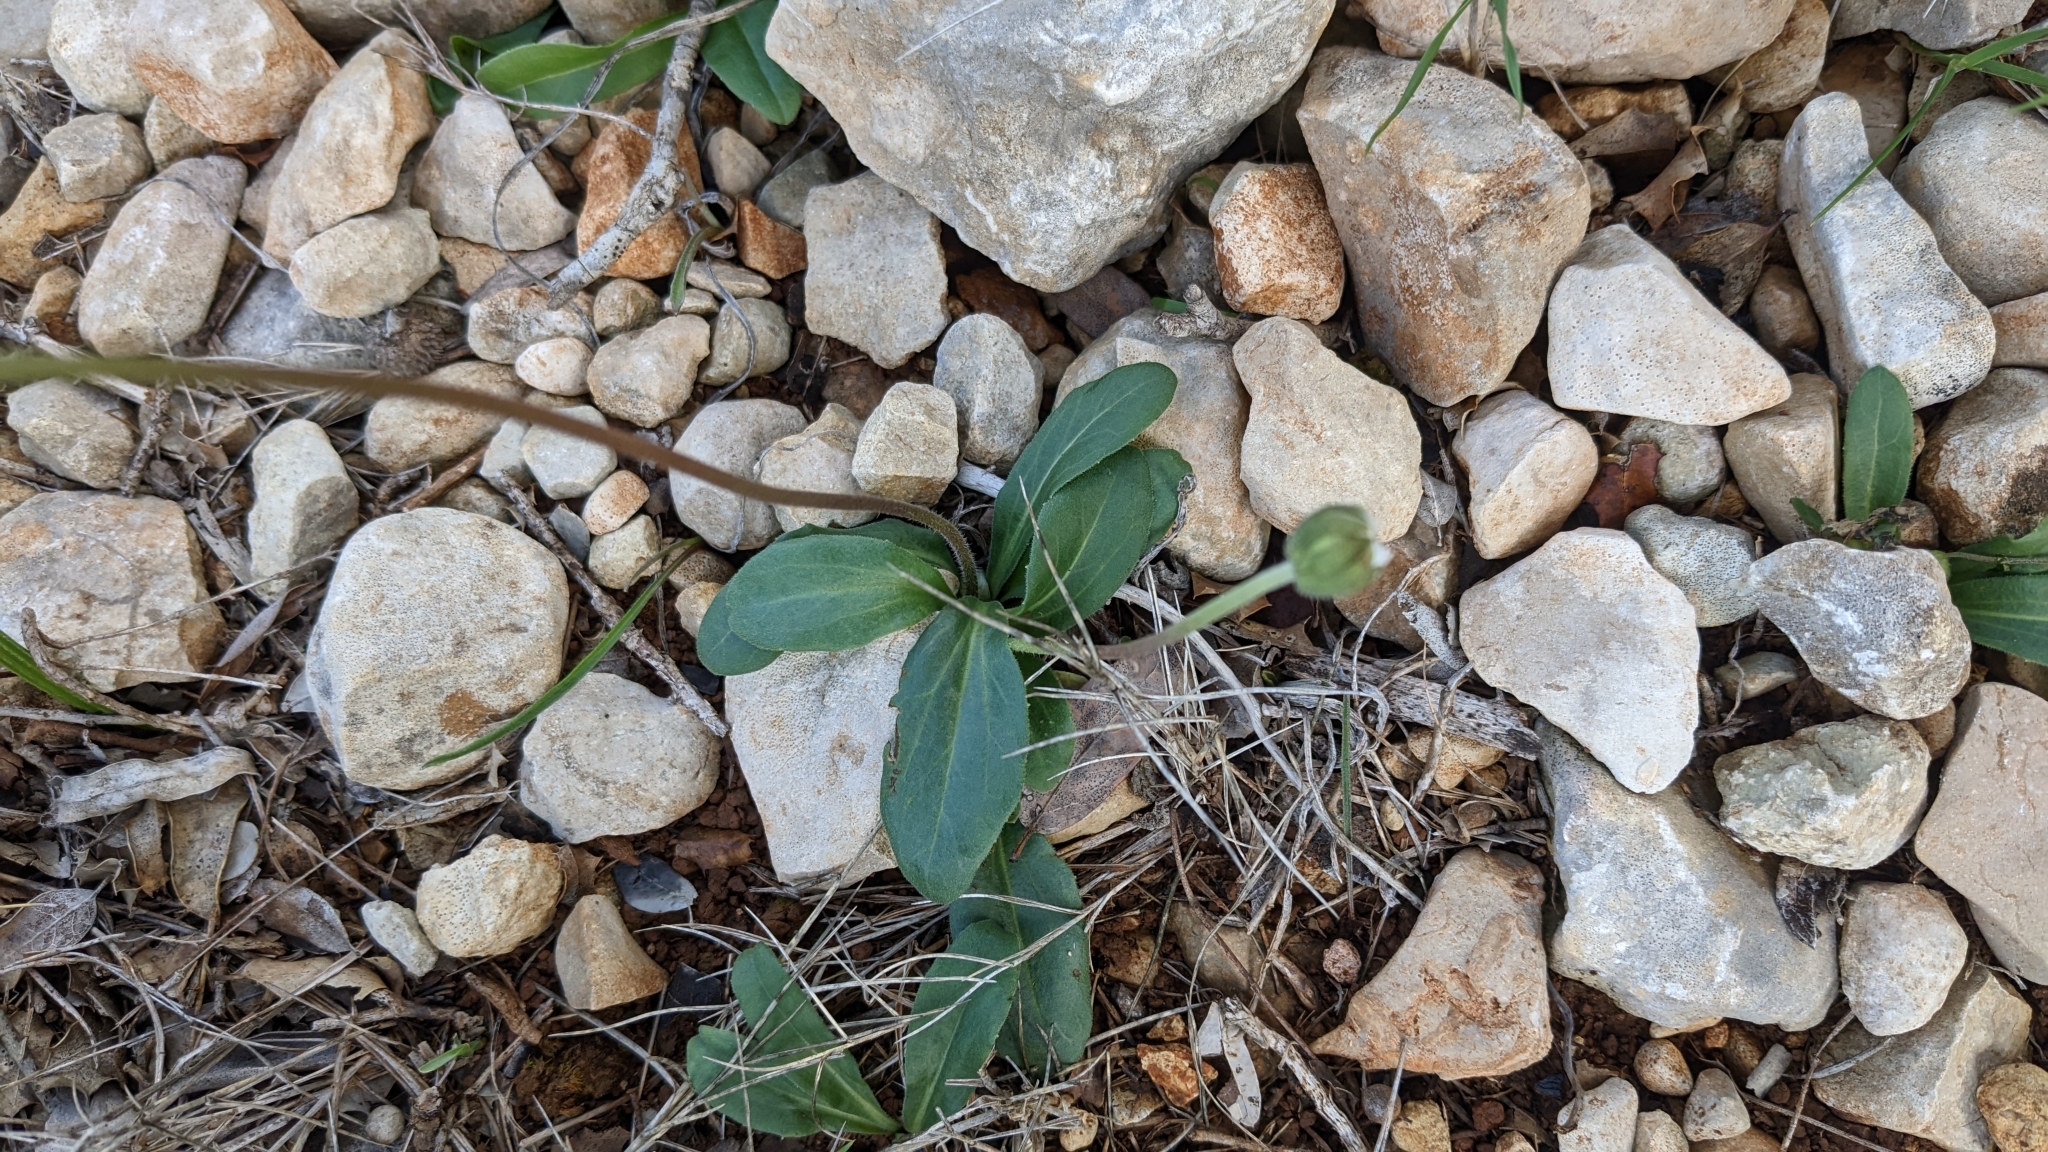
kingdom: Plantae
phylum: Tracheophyta
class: Magnoliopsida
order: Asterales
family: Asteraceae
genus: Bellis
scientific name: Bellis sylvestris
